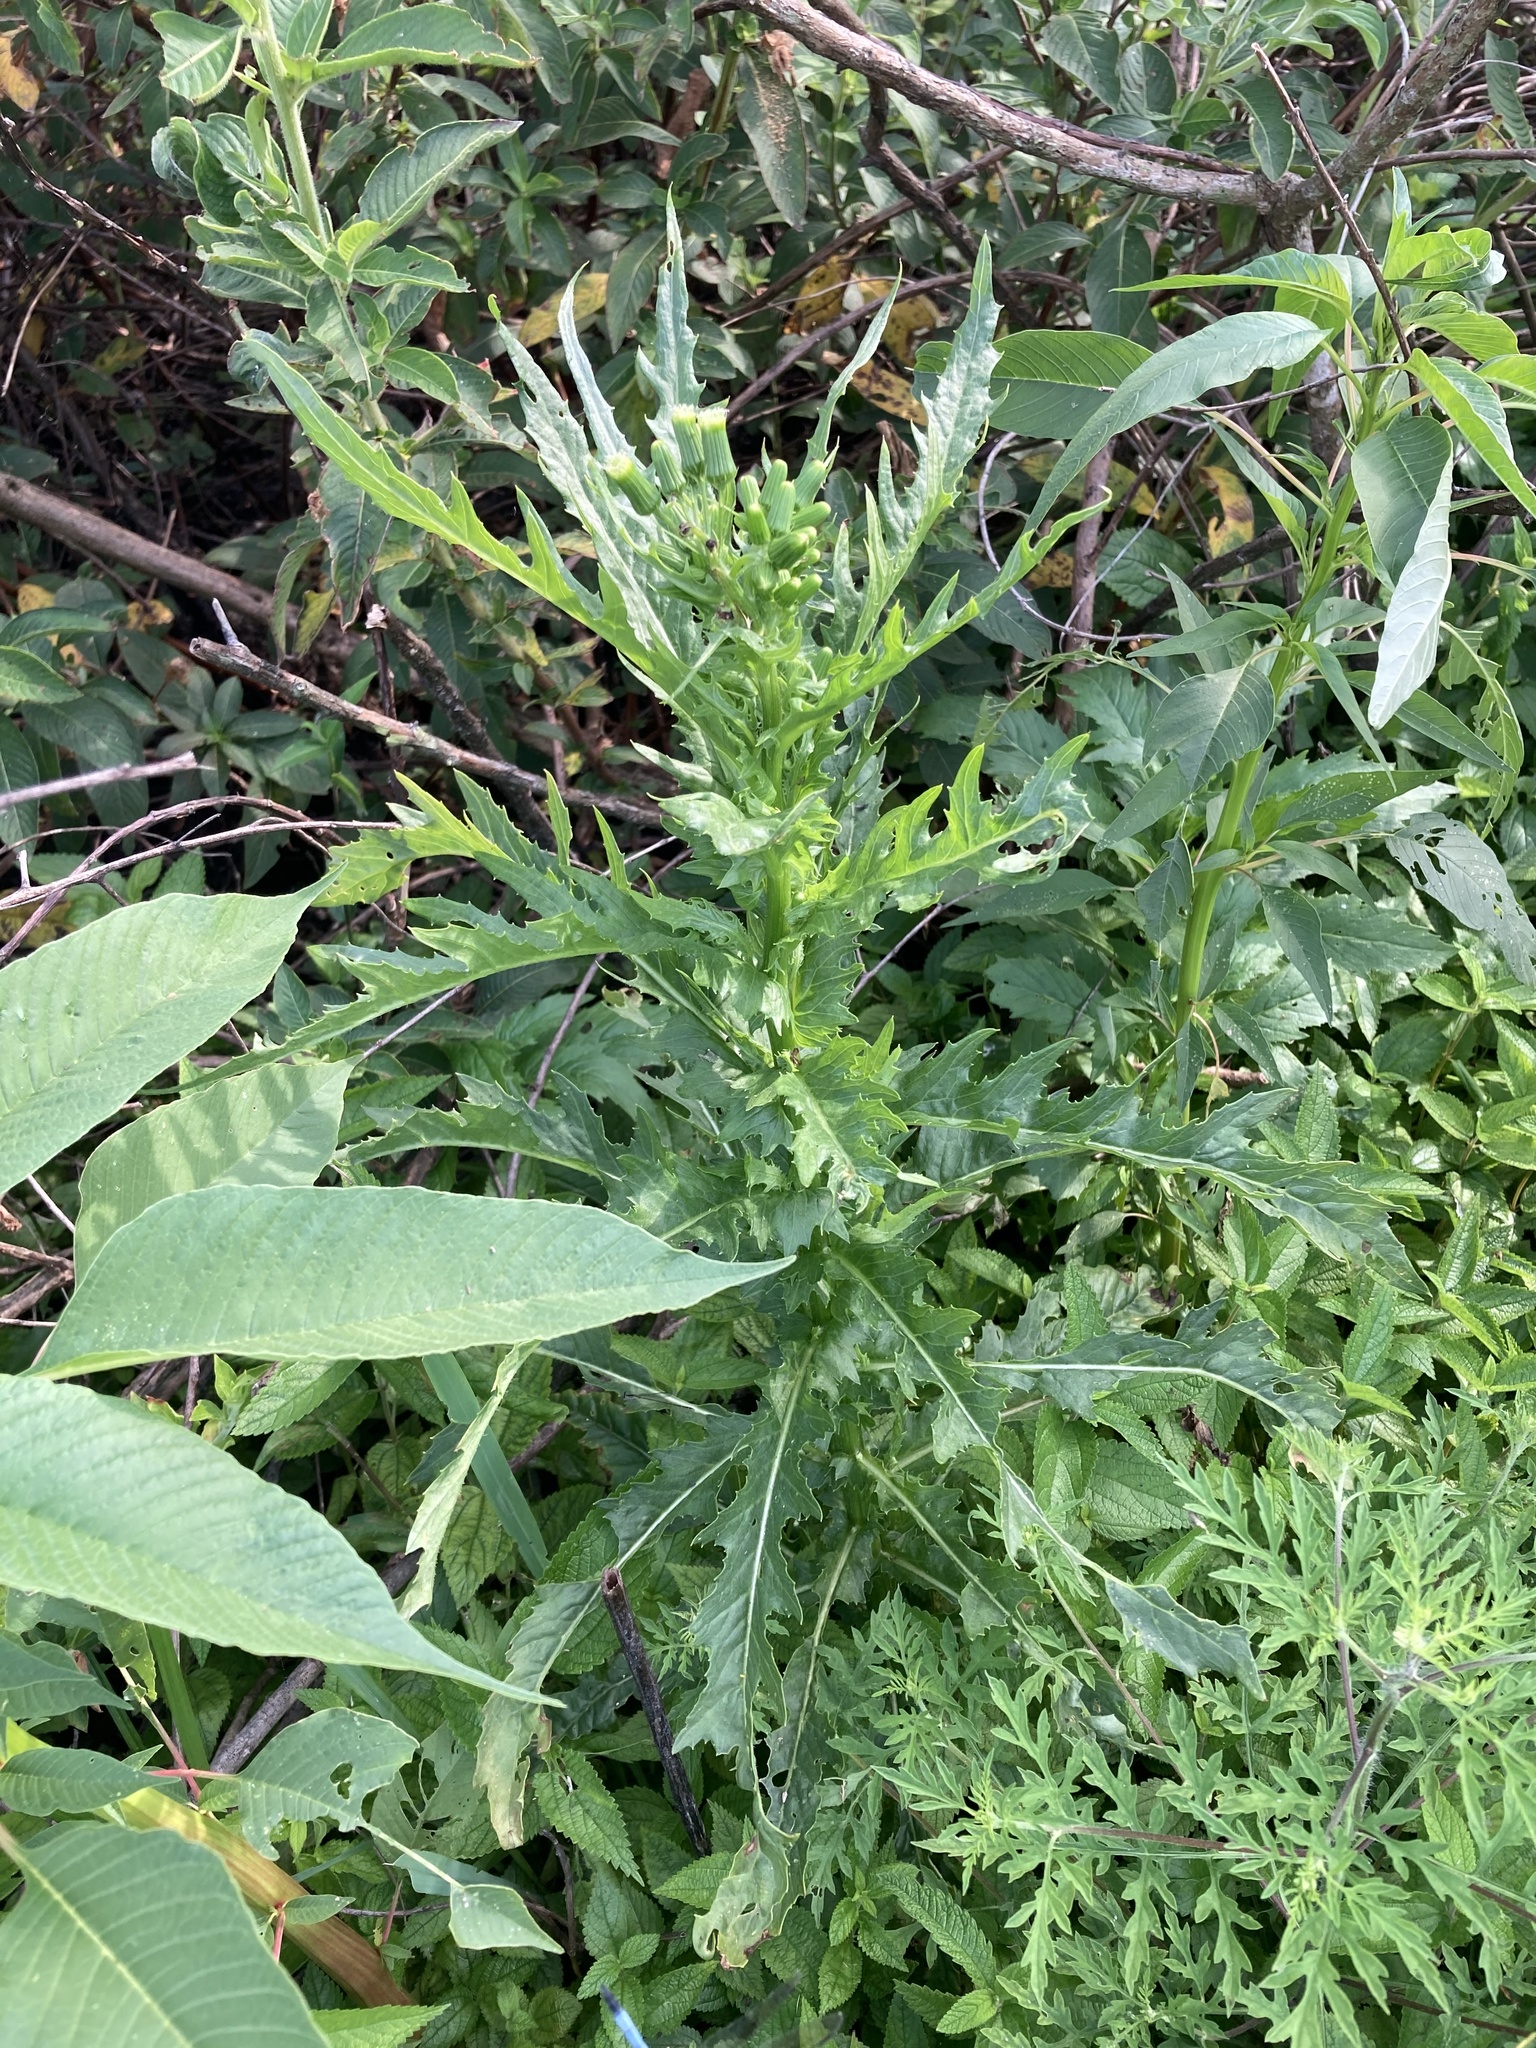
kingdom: Plantae
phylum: Tracheophyta
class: Magnoliopsida
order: Asterales
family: Asteraceae
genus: Erechtites
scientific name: Erechtites hieraciifolius
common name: American burnweed
